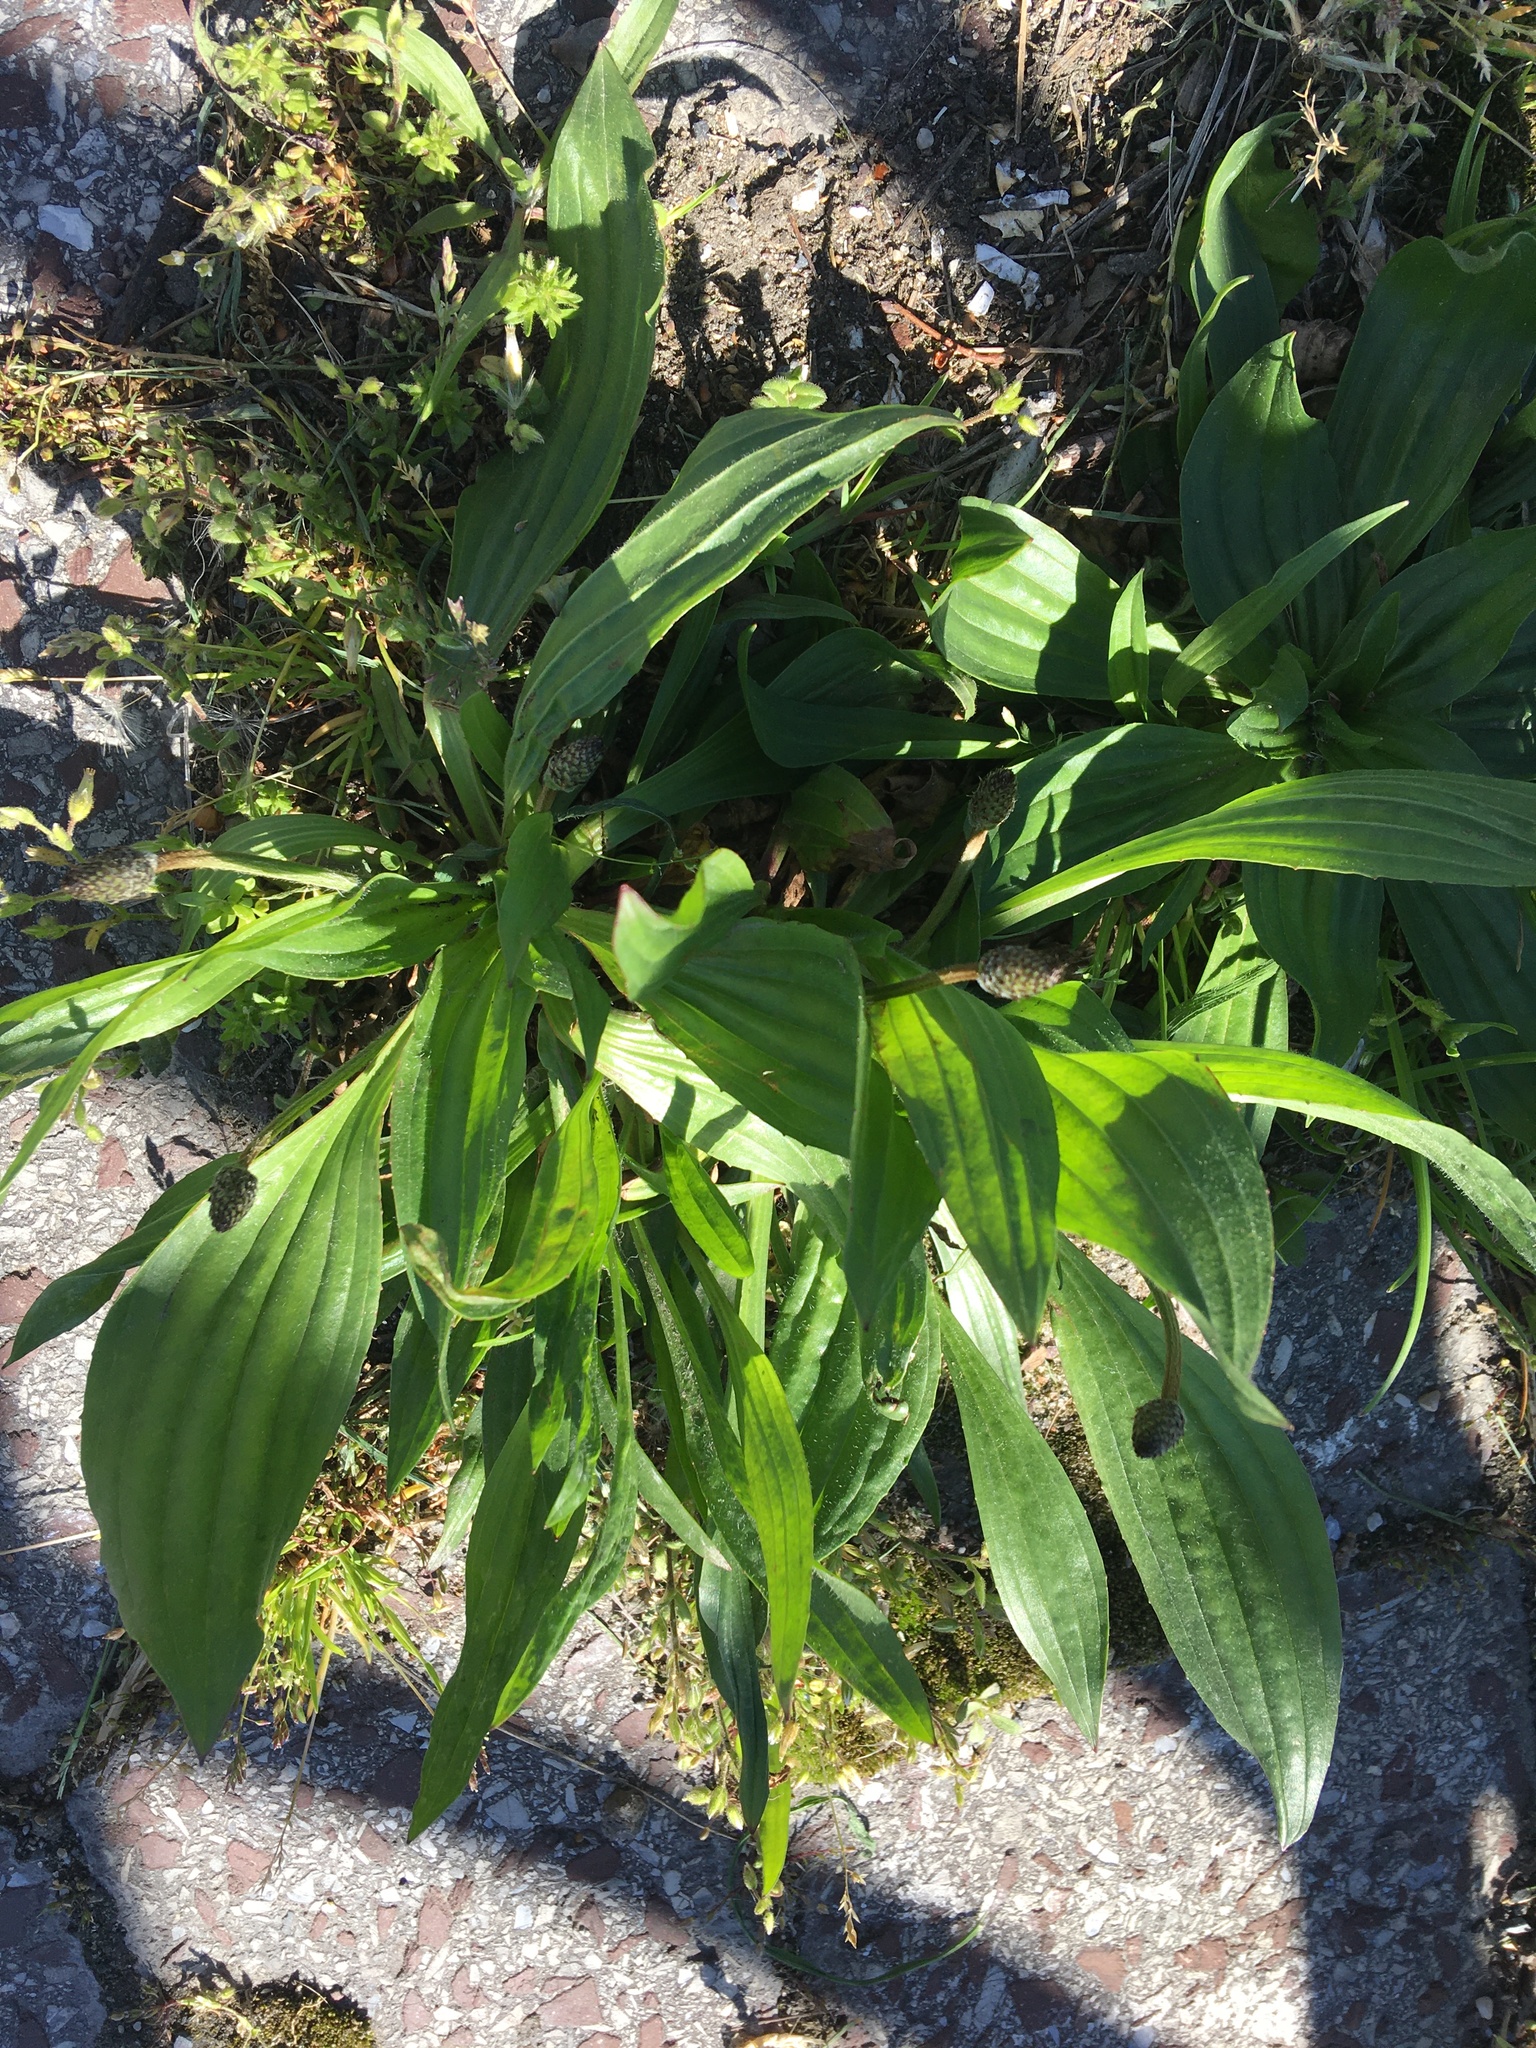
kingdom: Plantae
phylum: Tracheophyta
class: Magnoliopsida
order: Lamiales
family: Plantaginaceae
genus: Plantago
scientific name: Plantago lanceolata
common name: Ribwort plantain
